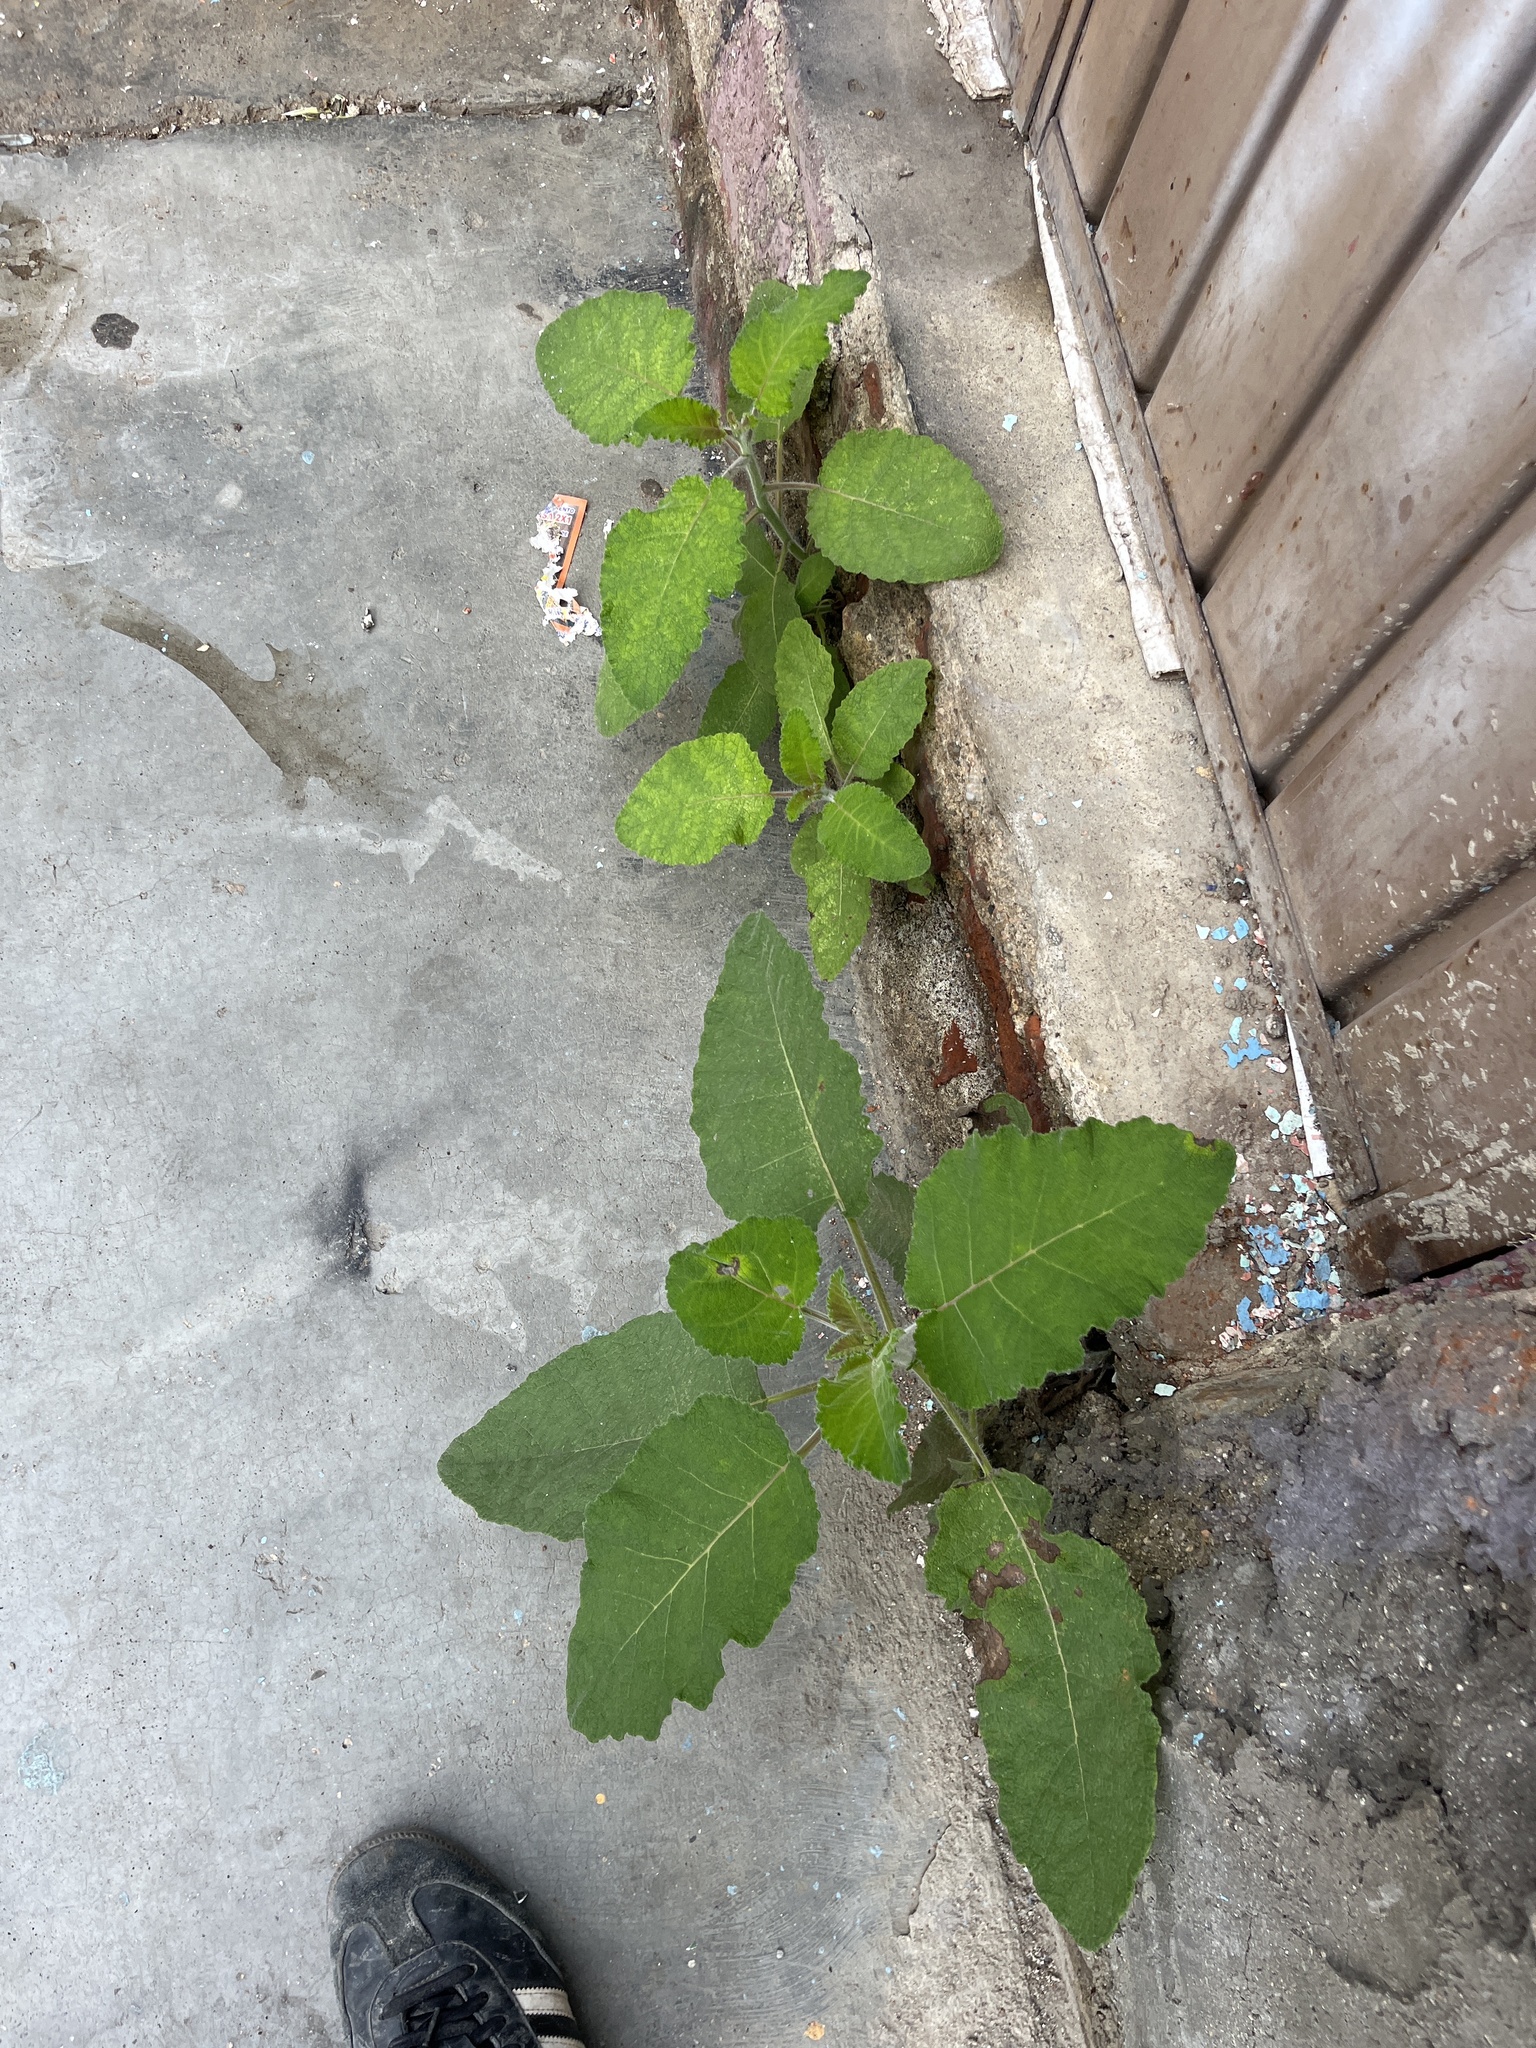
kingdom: Plantae
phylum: Tracheophyta
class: Magnoliopsida
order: Boraginales
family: Namaceae
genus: Wigandia
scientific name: Wigandia urens
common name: Caracus wigandia
